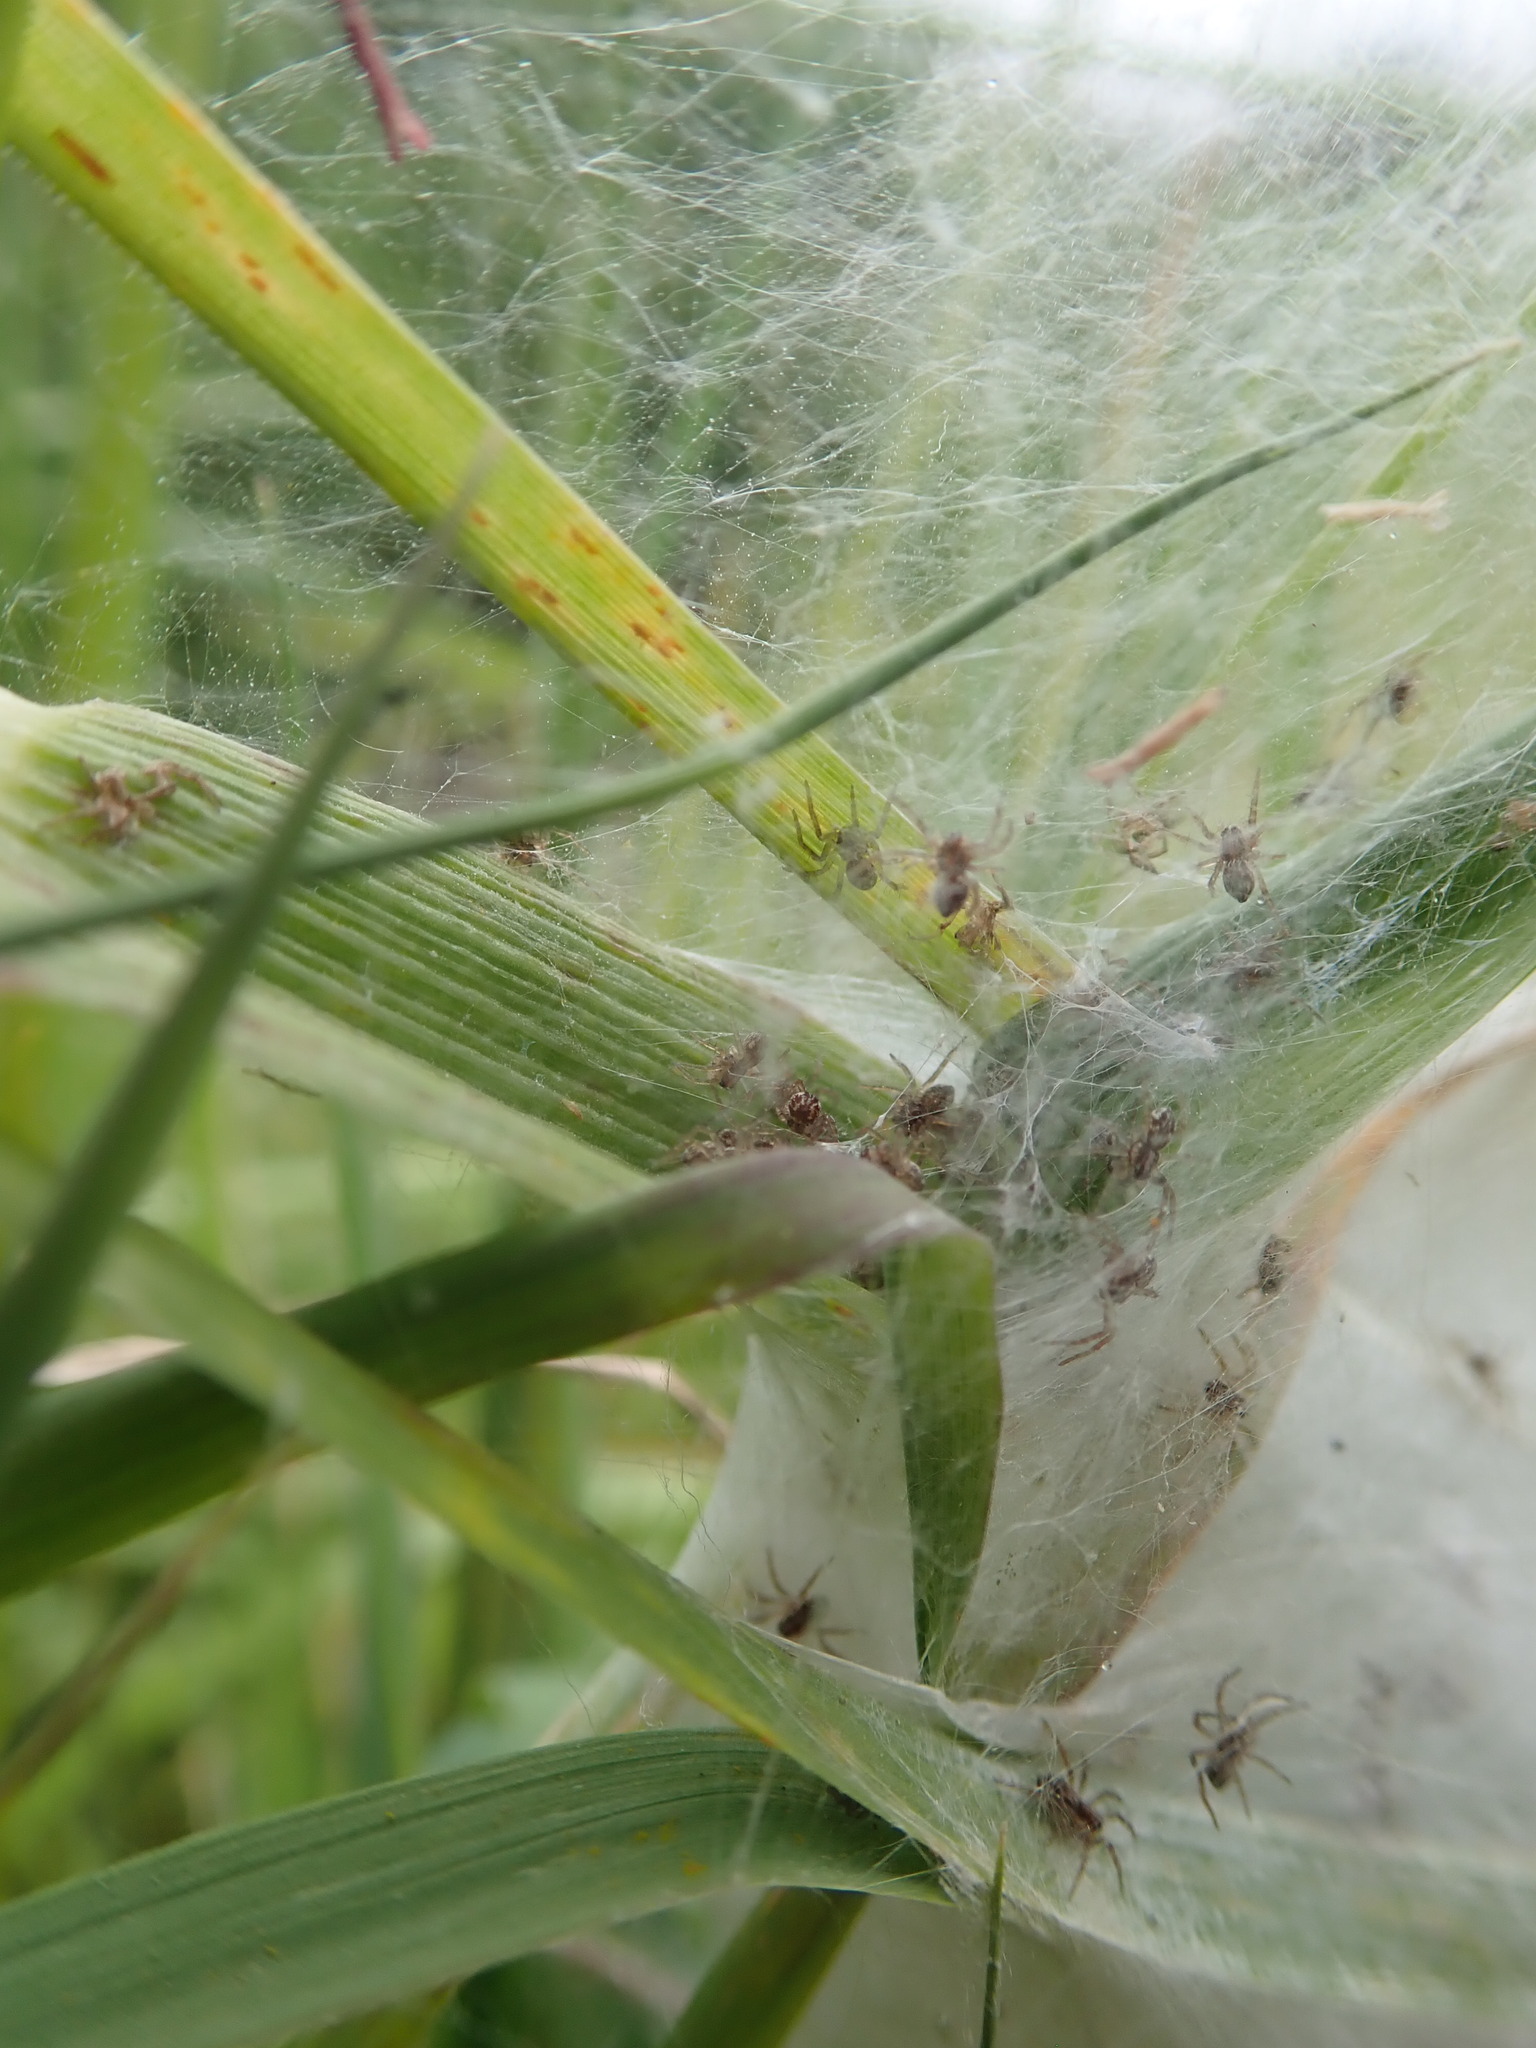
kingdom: Animalia
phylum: Arthropoda
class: Arachnida
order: Araneae
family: Pisauridae
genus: Dolomedes
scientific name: Dolomedes minor
